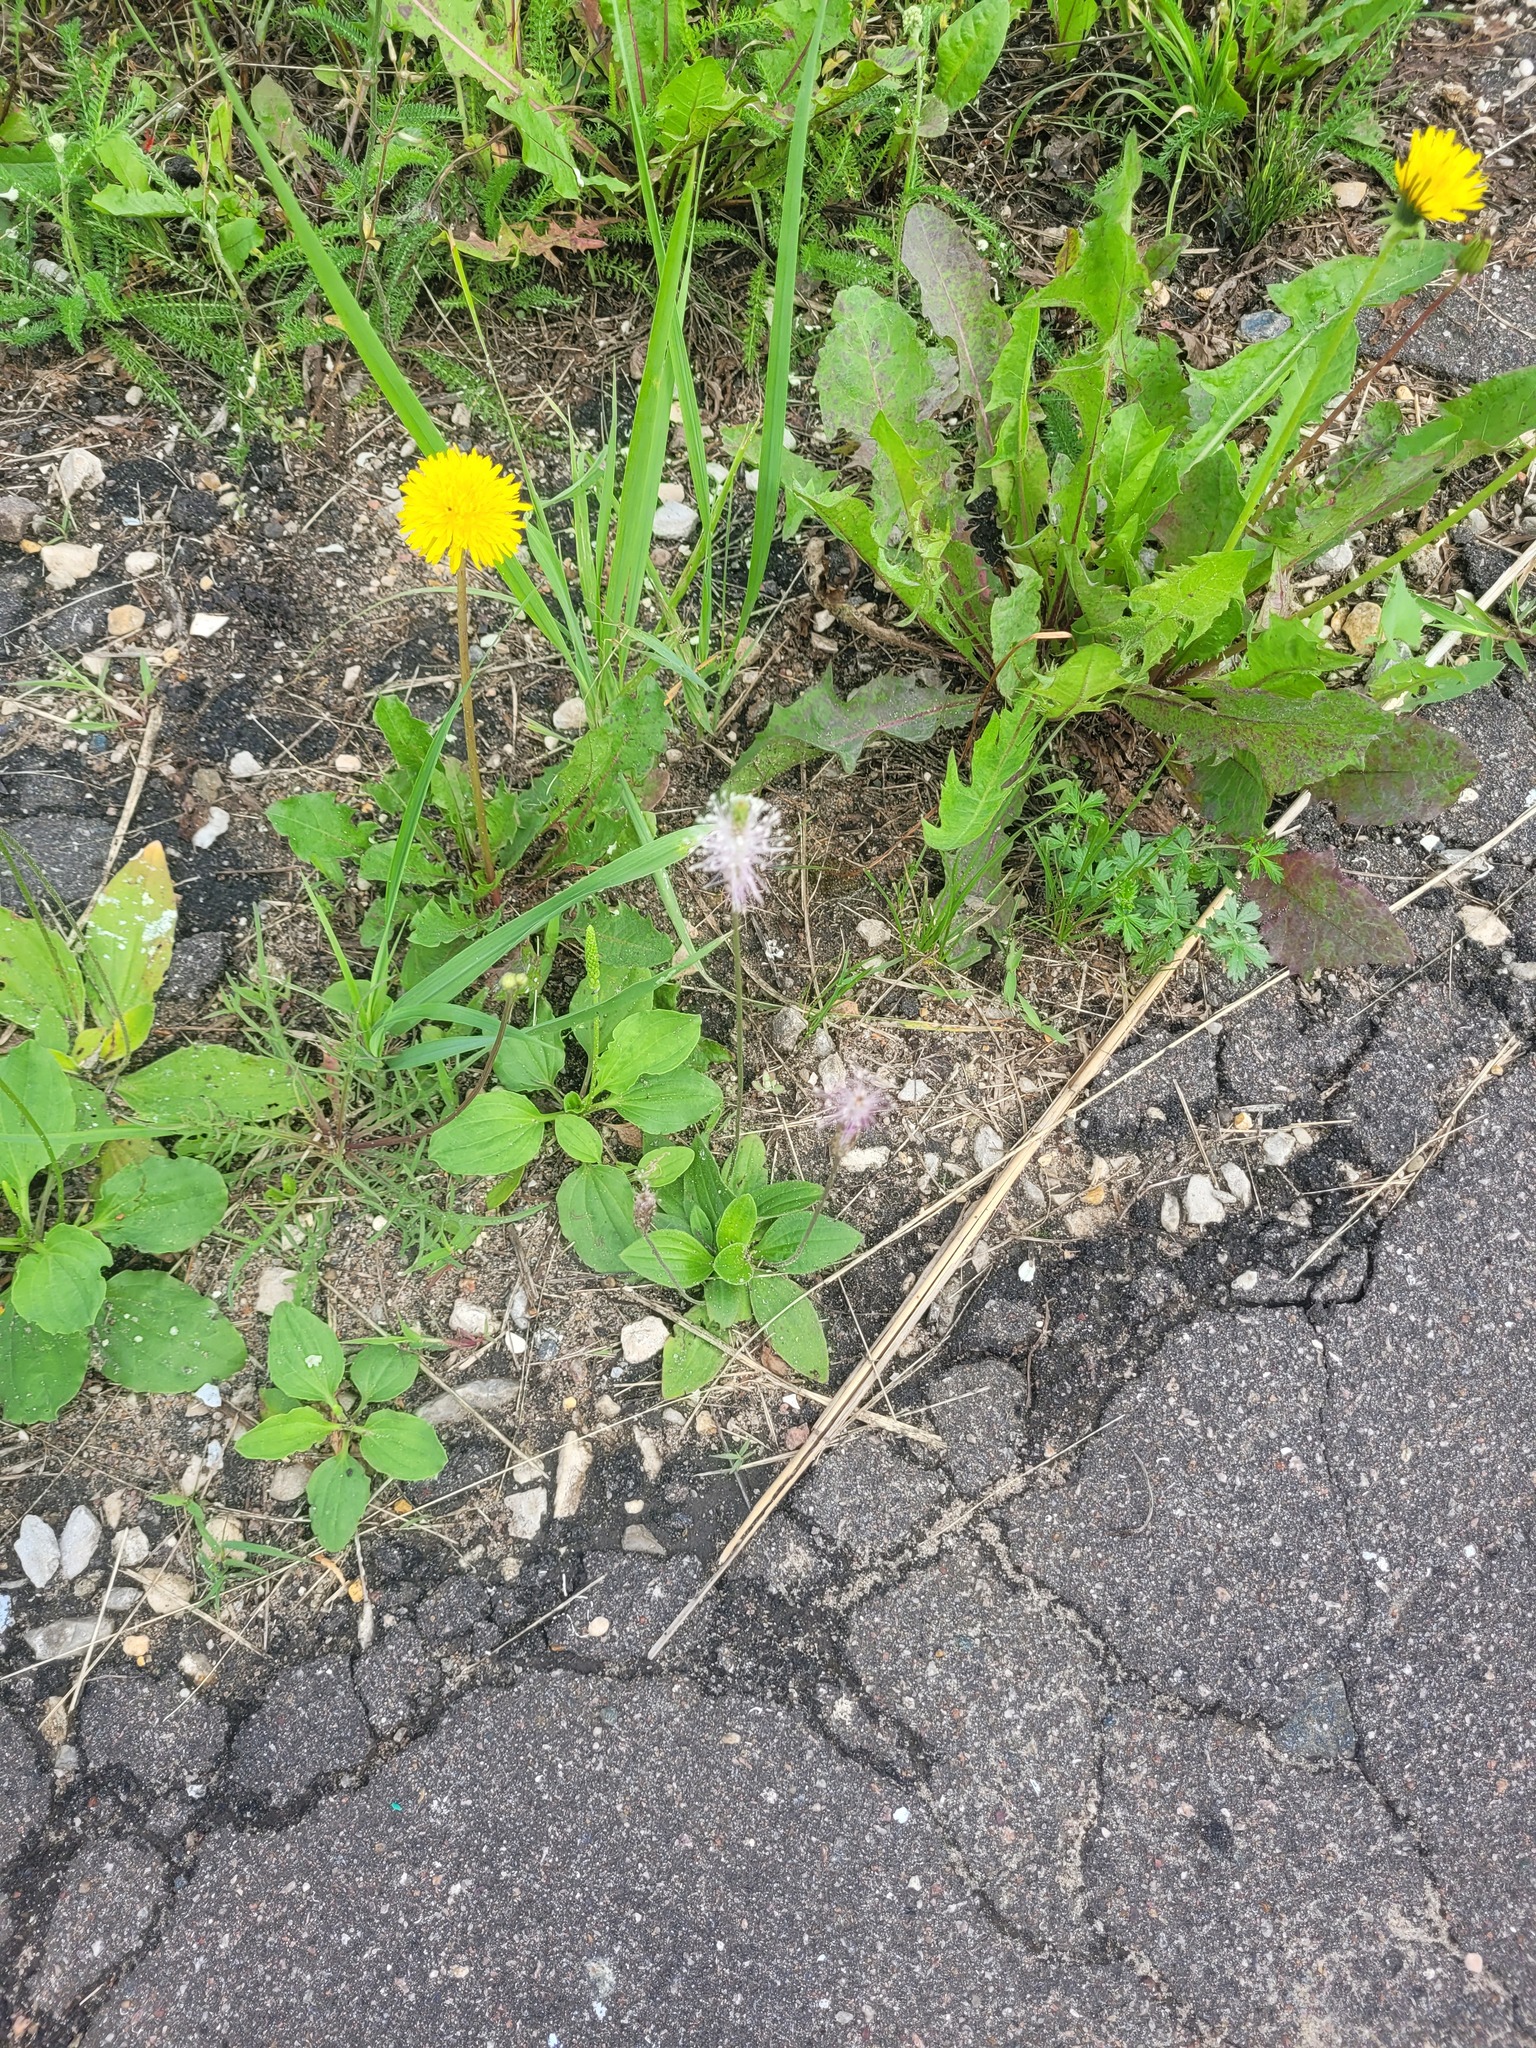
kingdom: Plantae
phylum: Tracheophyta
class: Magnoliopsida
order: Lamiales
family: Plantaginaceae
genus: Plantago
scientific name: Plantago media
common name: Hoary plantain
